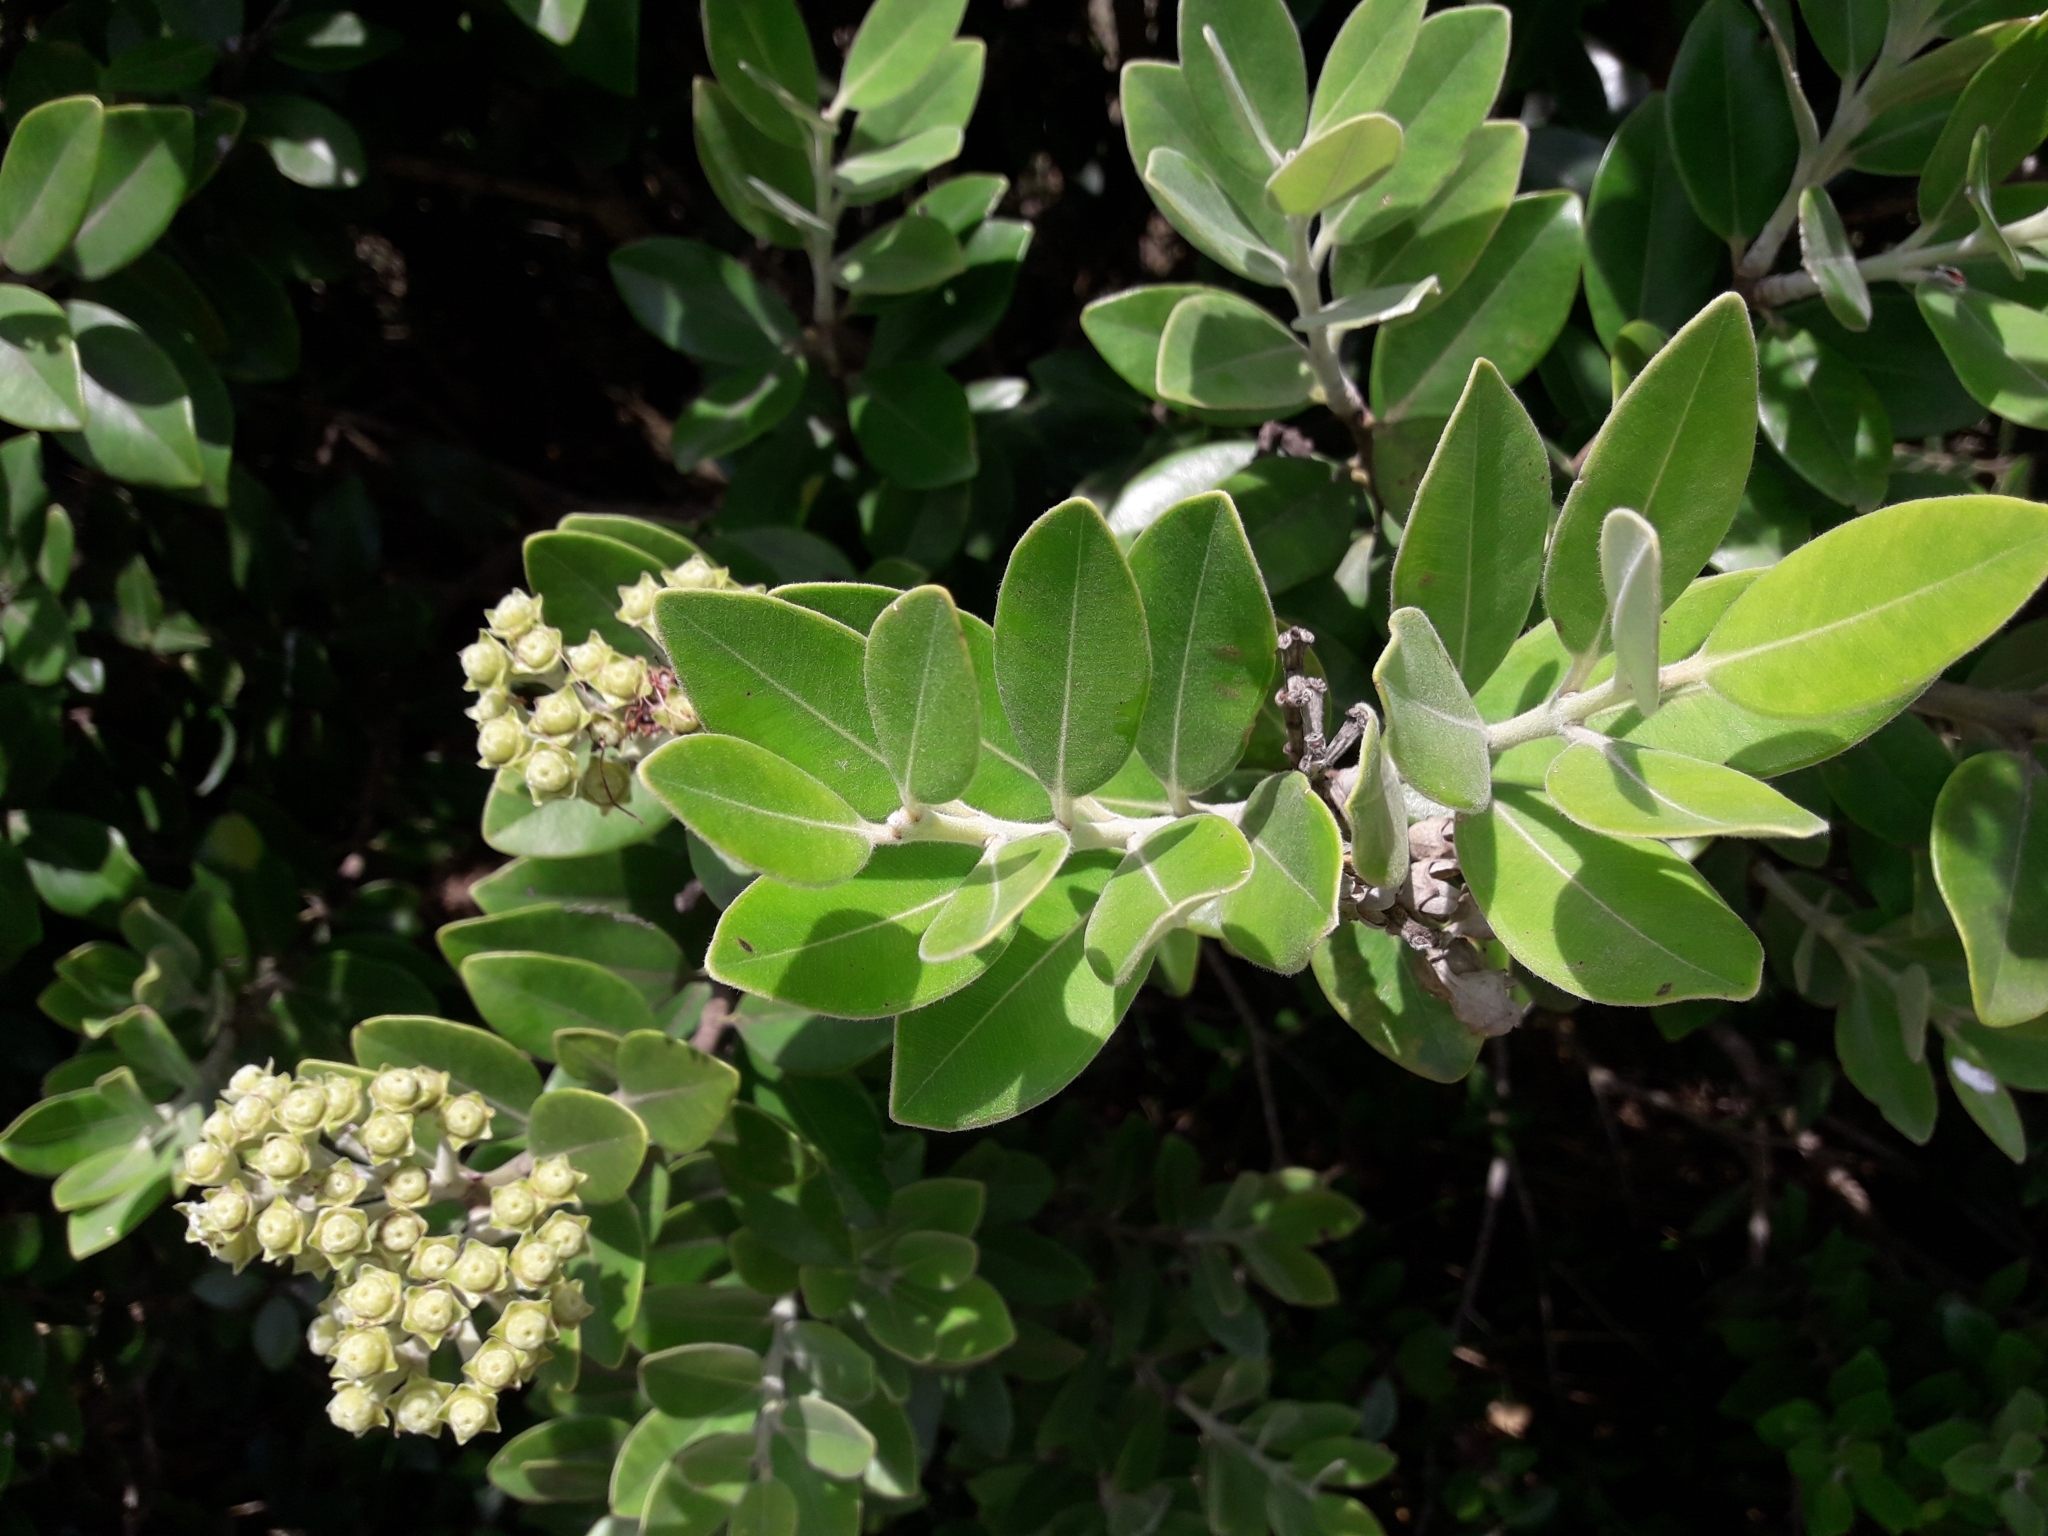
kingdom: Plantae
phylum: Tracheophyta
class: Magnoliopsida
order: Myrtales
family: Myrtaceae
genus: Metrosideros
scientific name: Metrosideros excelsa
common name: New zealand christmastree
